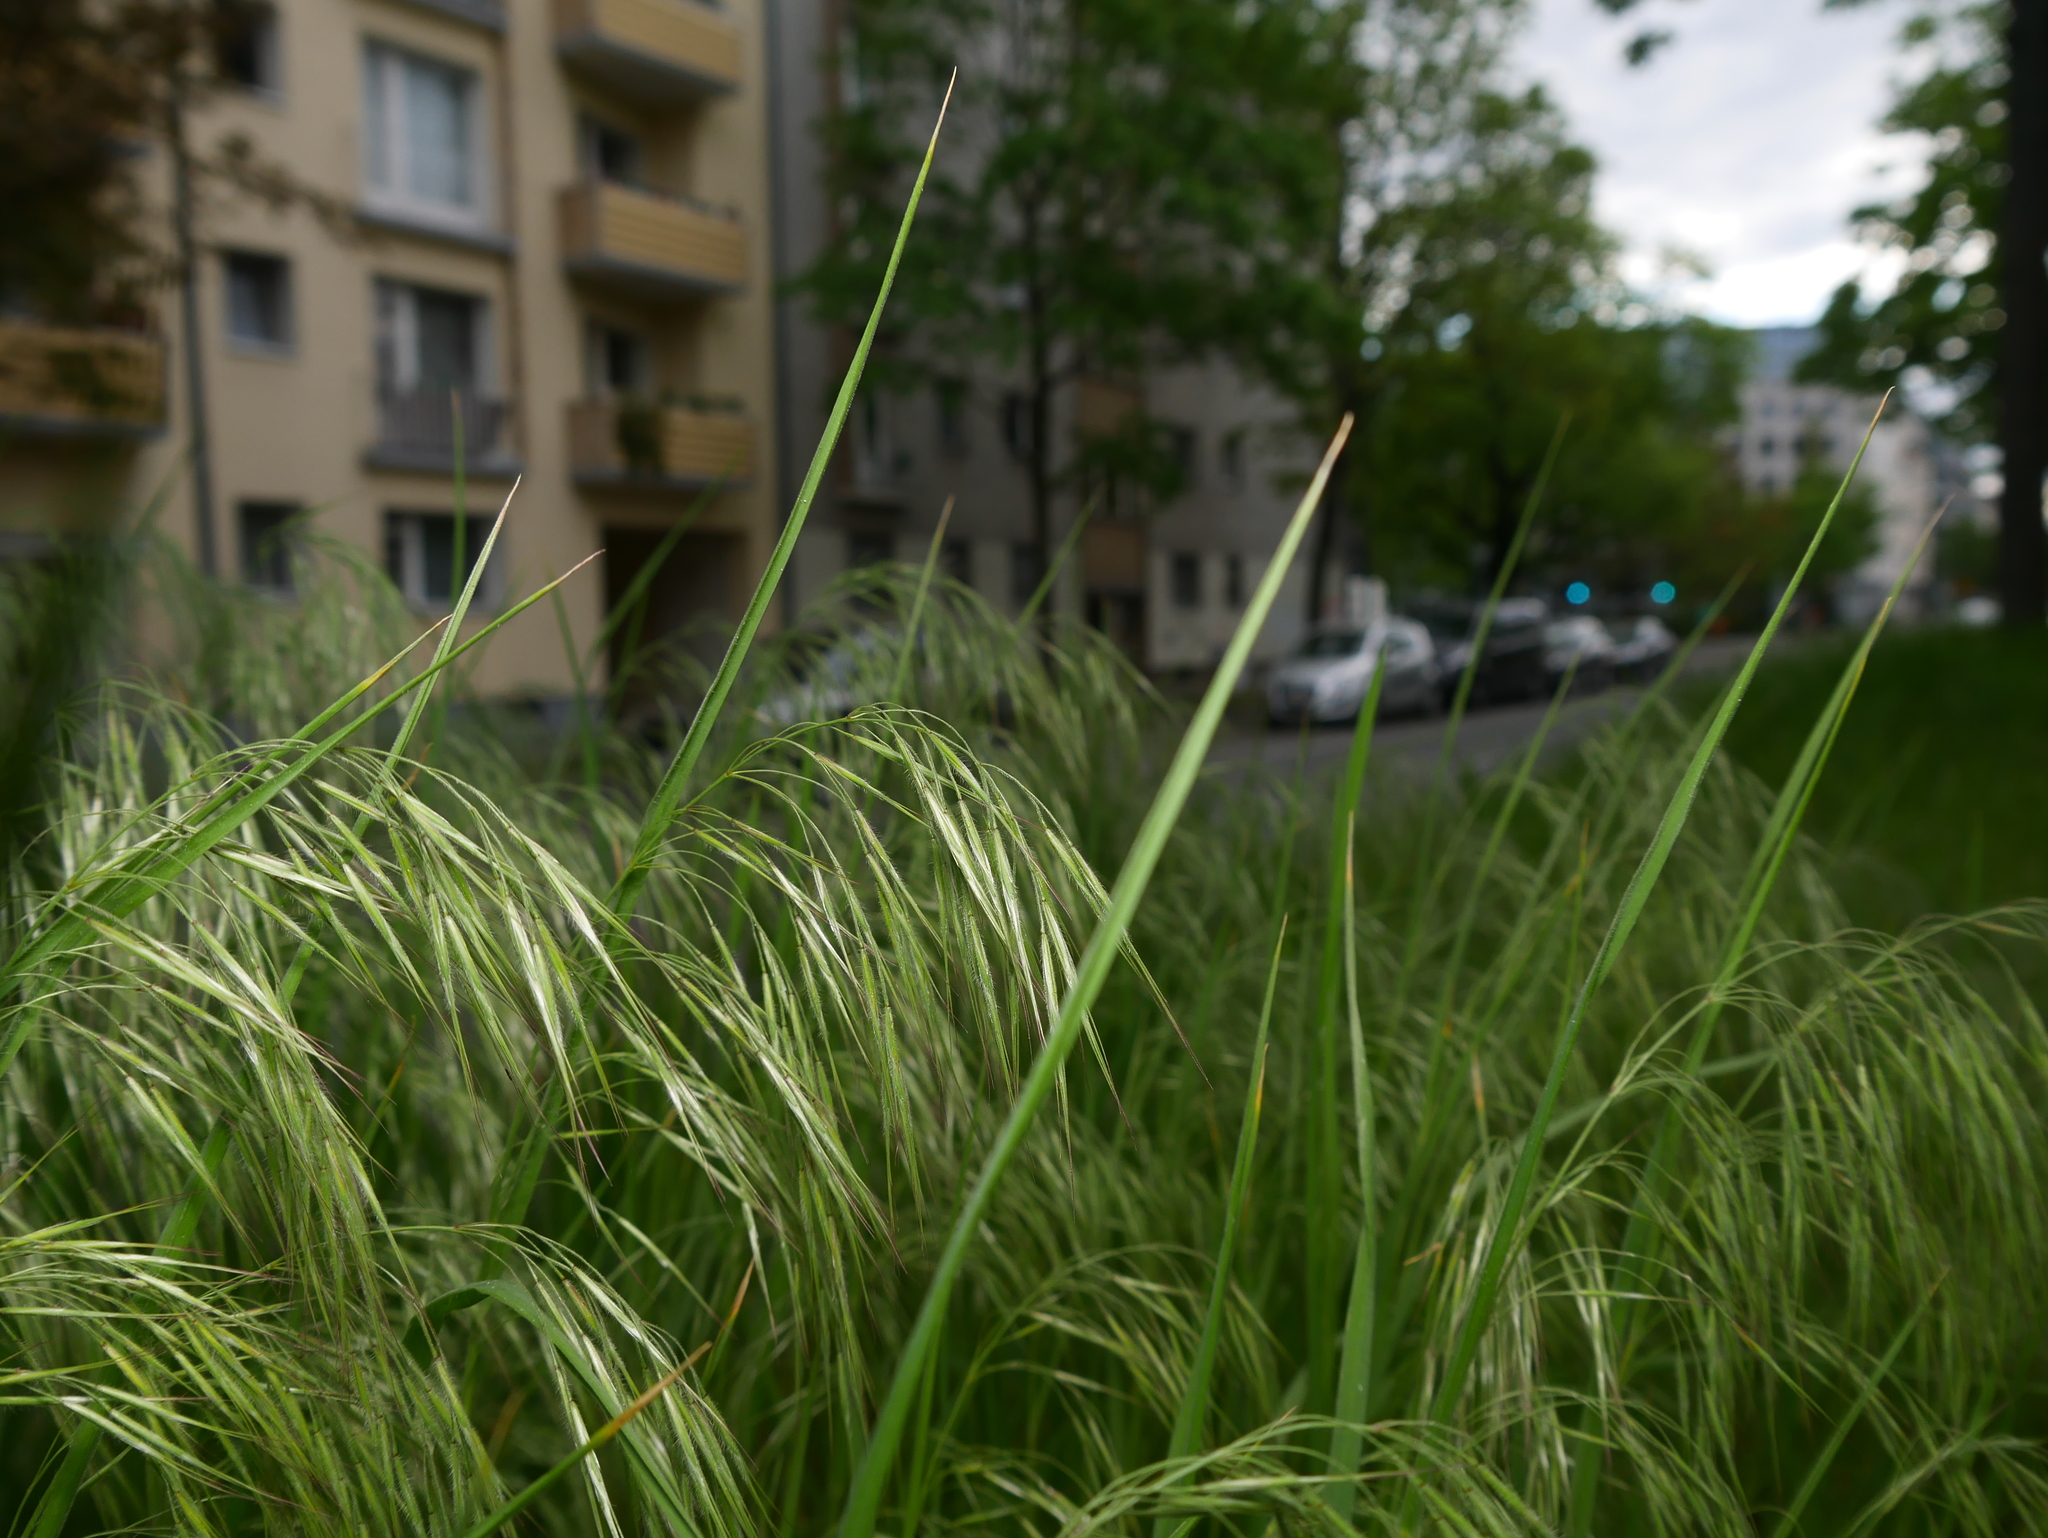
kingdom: Plantae
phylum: Tracheophyta
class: Liliopsida
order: Poales
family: Poaceae
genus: Bromus
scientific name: Bromus tectorum
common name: Cheatgrass
